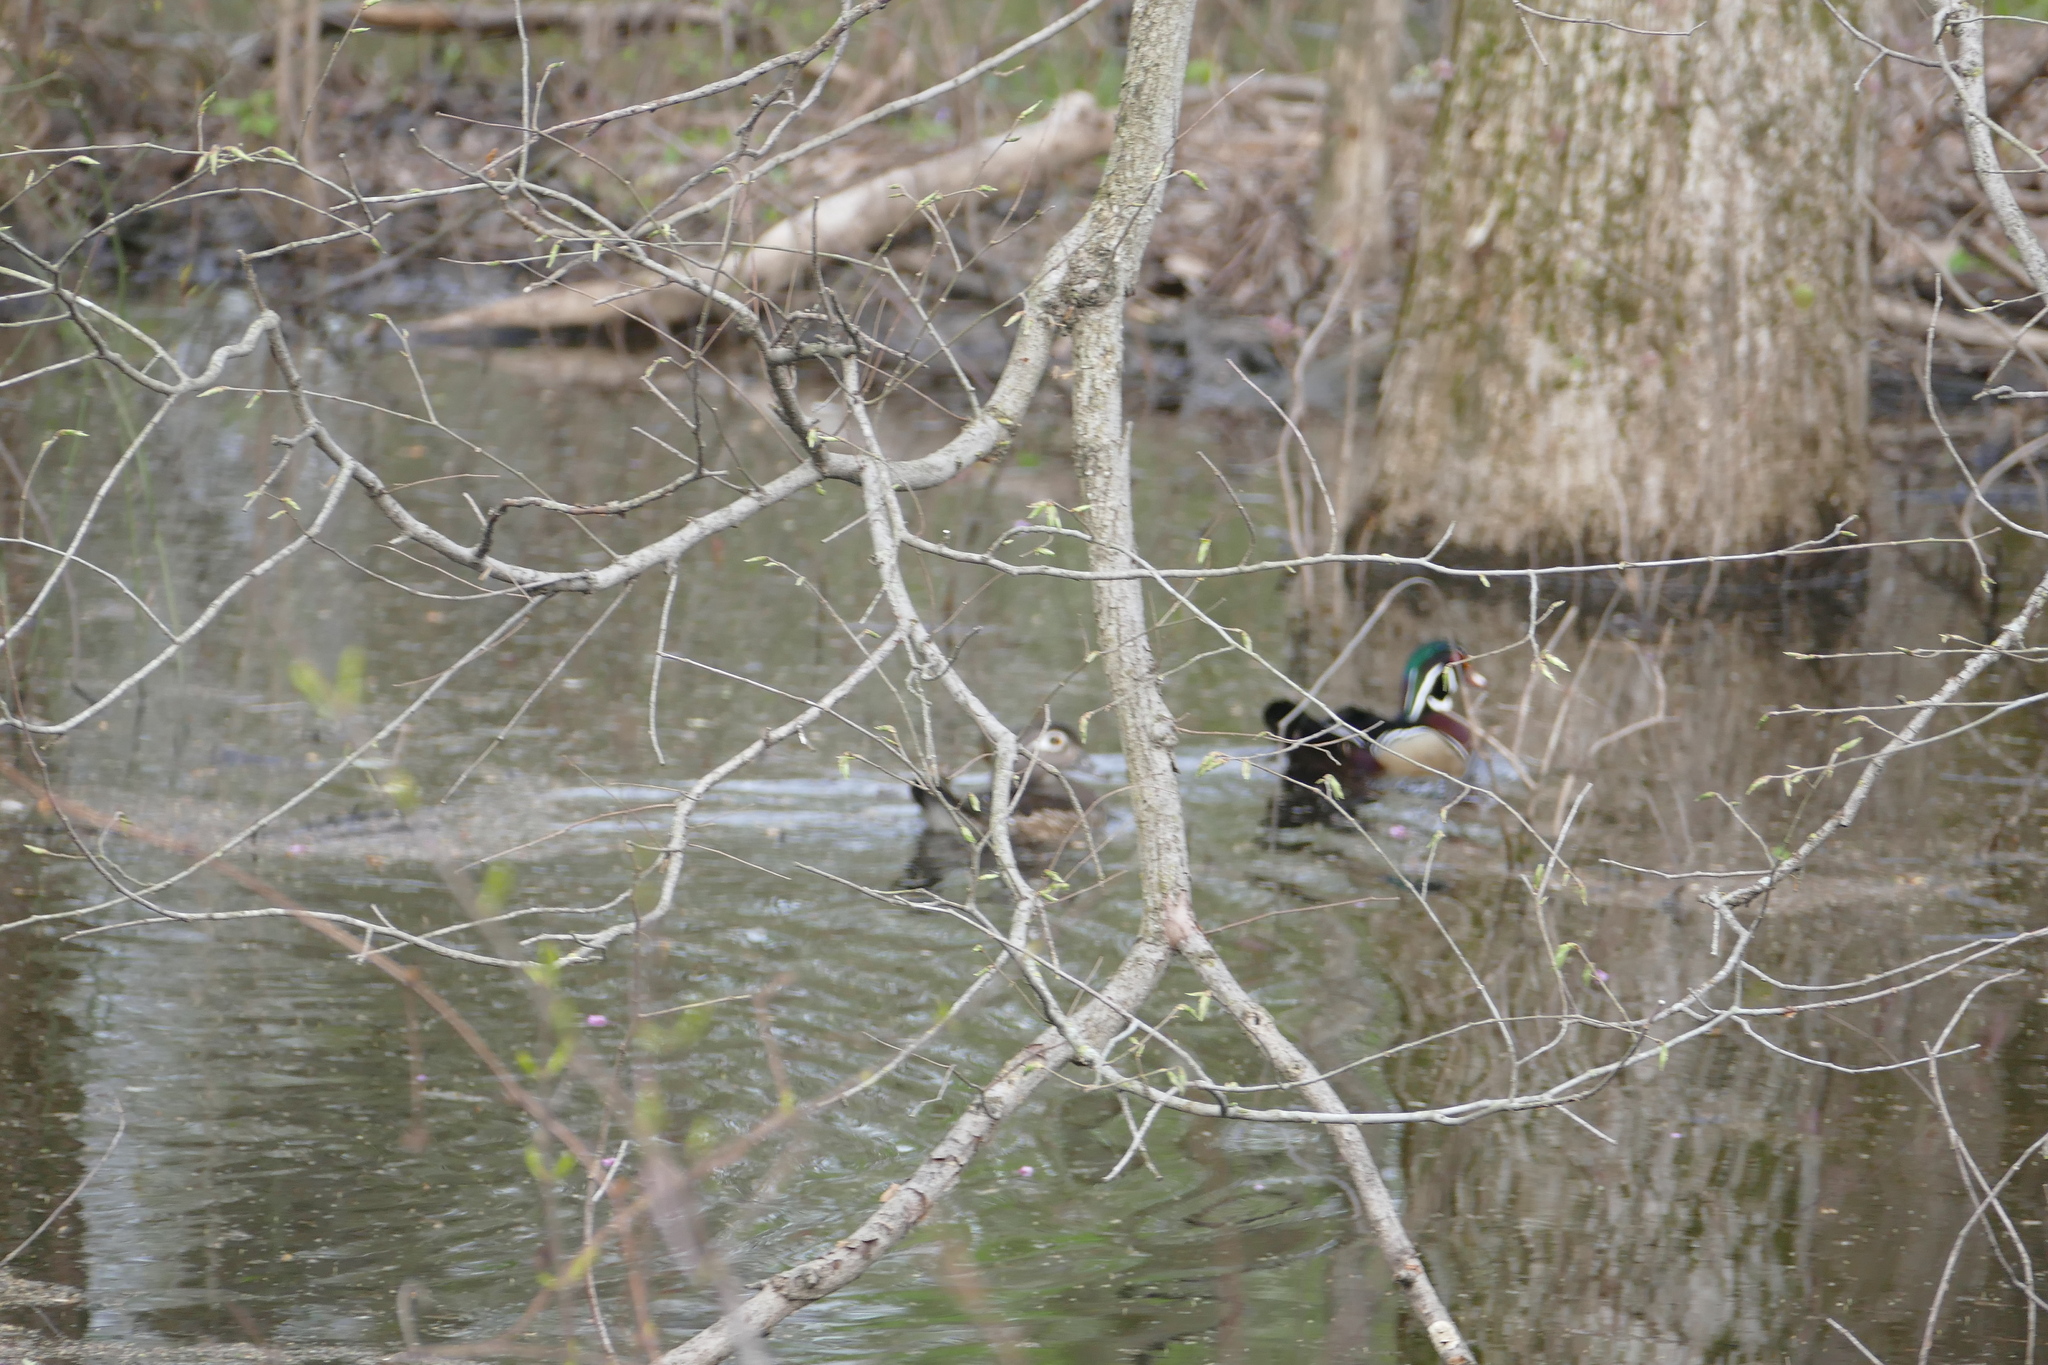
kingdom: Animalia
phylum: Chordata
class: Aves
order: Anseriformes
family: Anatidae
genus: Aix
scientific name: Aix sponsa
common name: Wood duck
